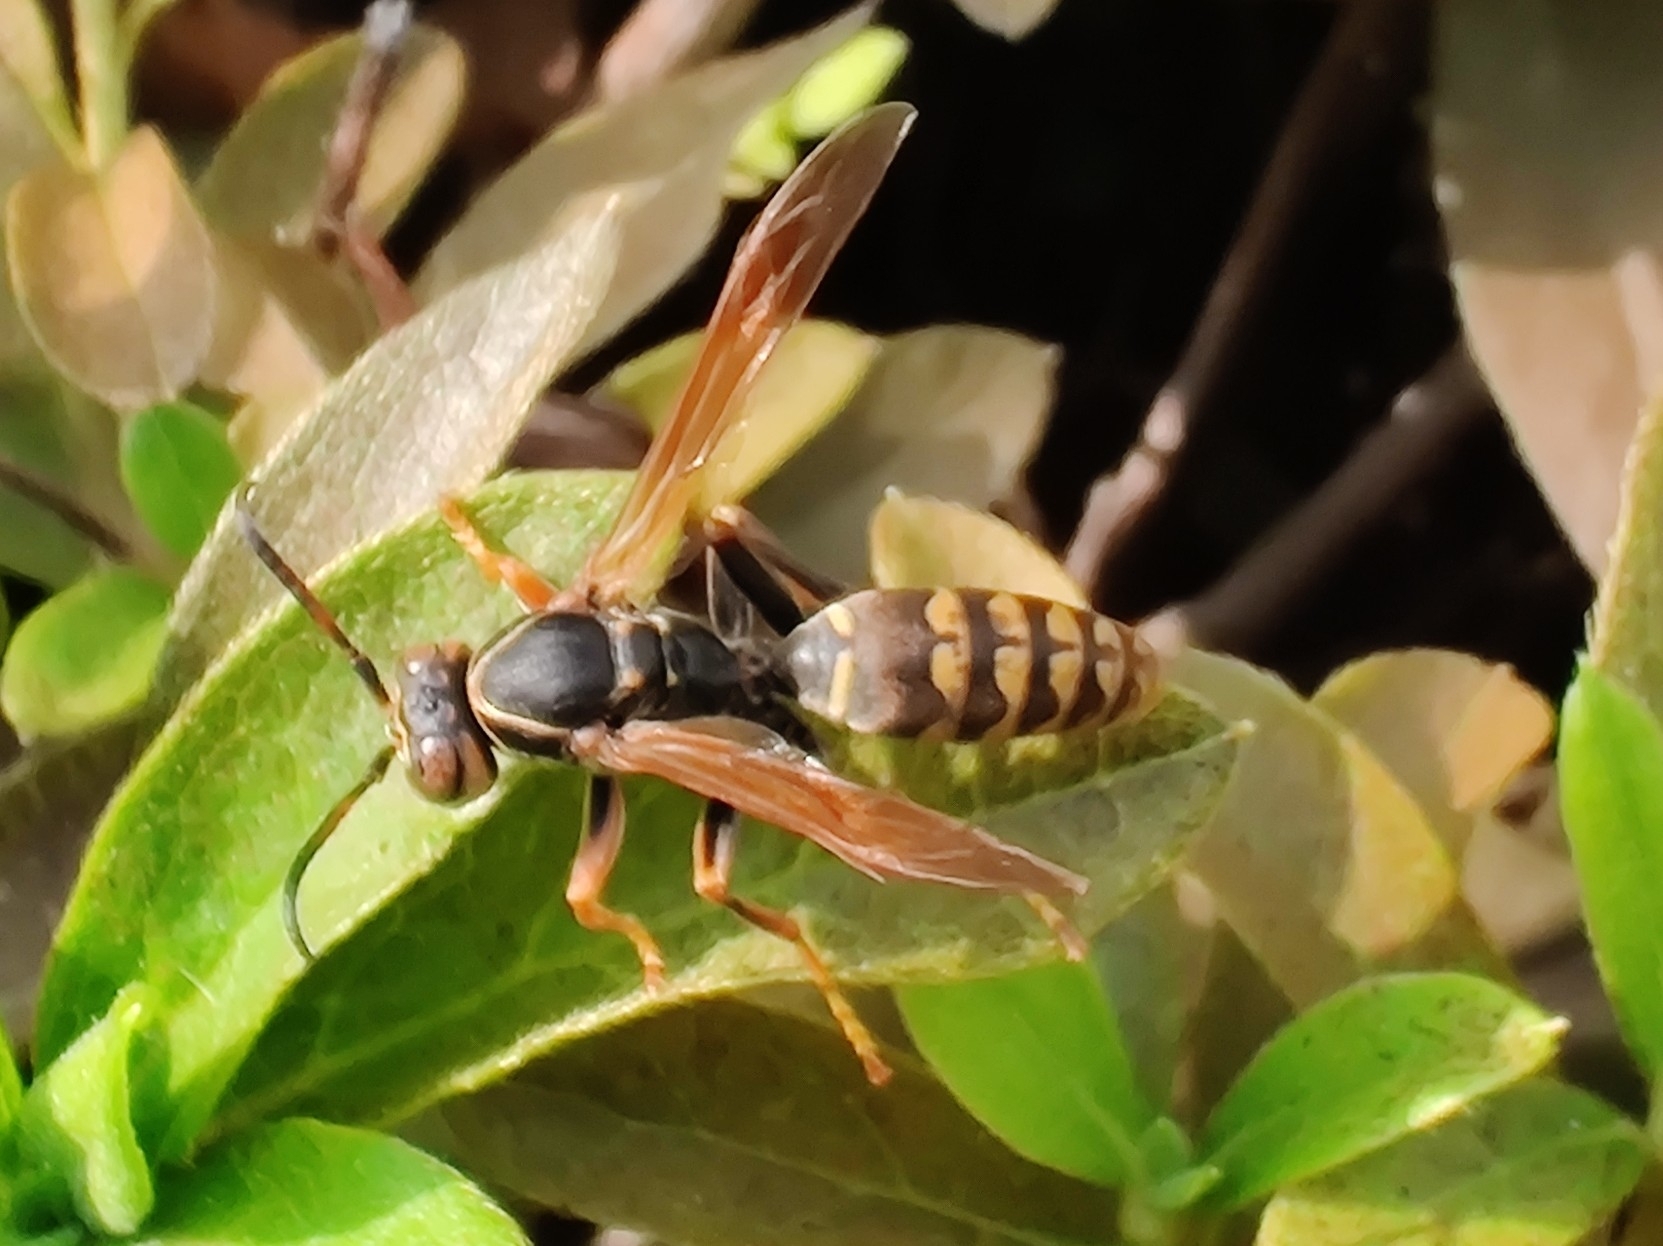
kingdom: Animalia
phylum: Arthropoda
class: Insecta
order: Hymenoptera
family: Eumenidae
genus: Polistes
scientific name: Polistes jokahamae
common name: Paper wasp
